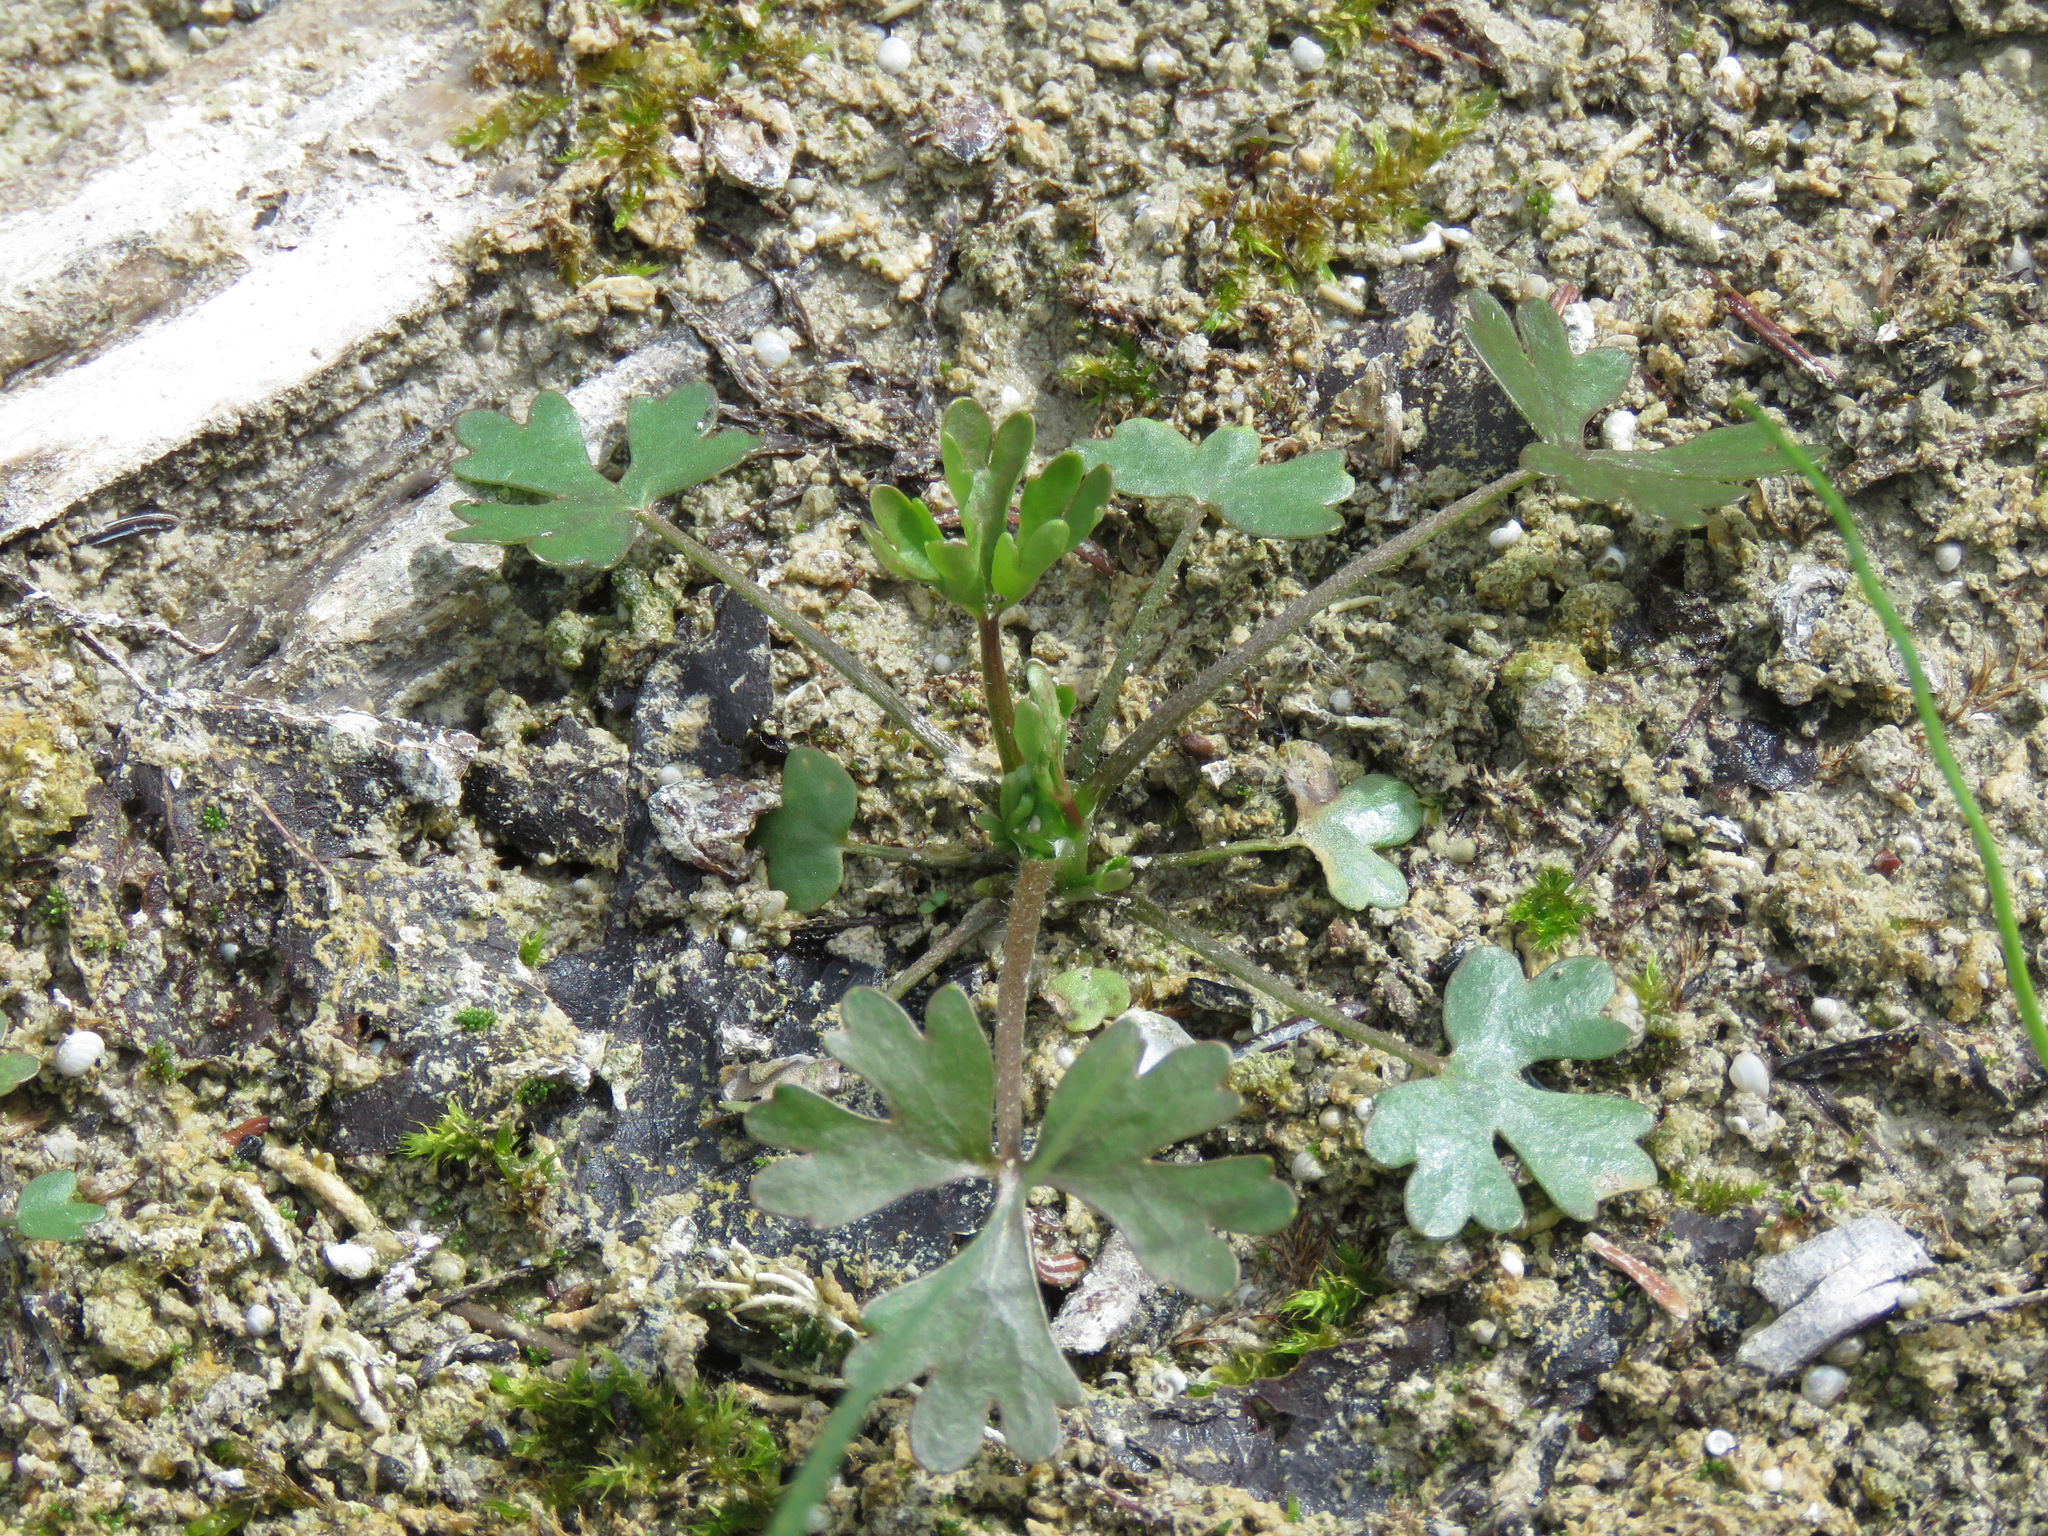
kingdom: Plantae
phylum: Tracheophyta
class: Magnoliopsida
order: Ranunculales
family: Ranunculaceae
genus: Ranunculus
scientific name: Ranunculus sceleratus
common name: Celery-leaved buttercup
